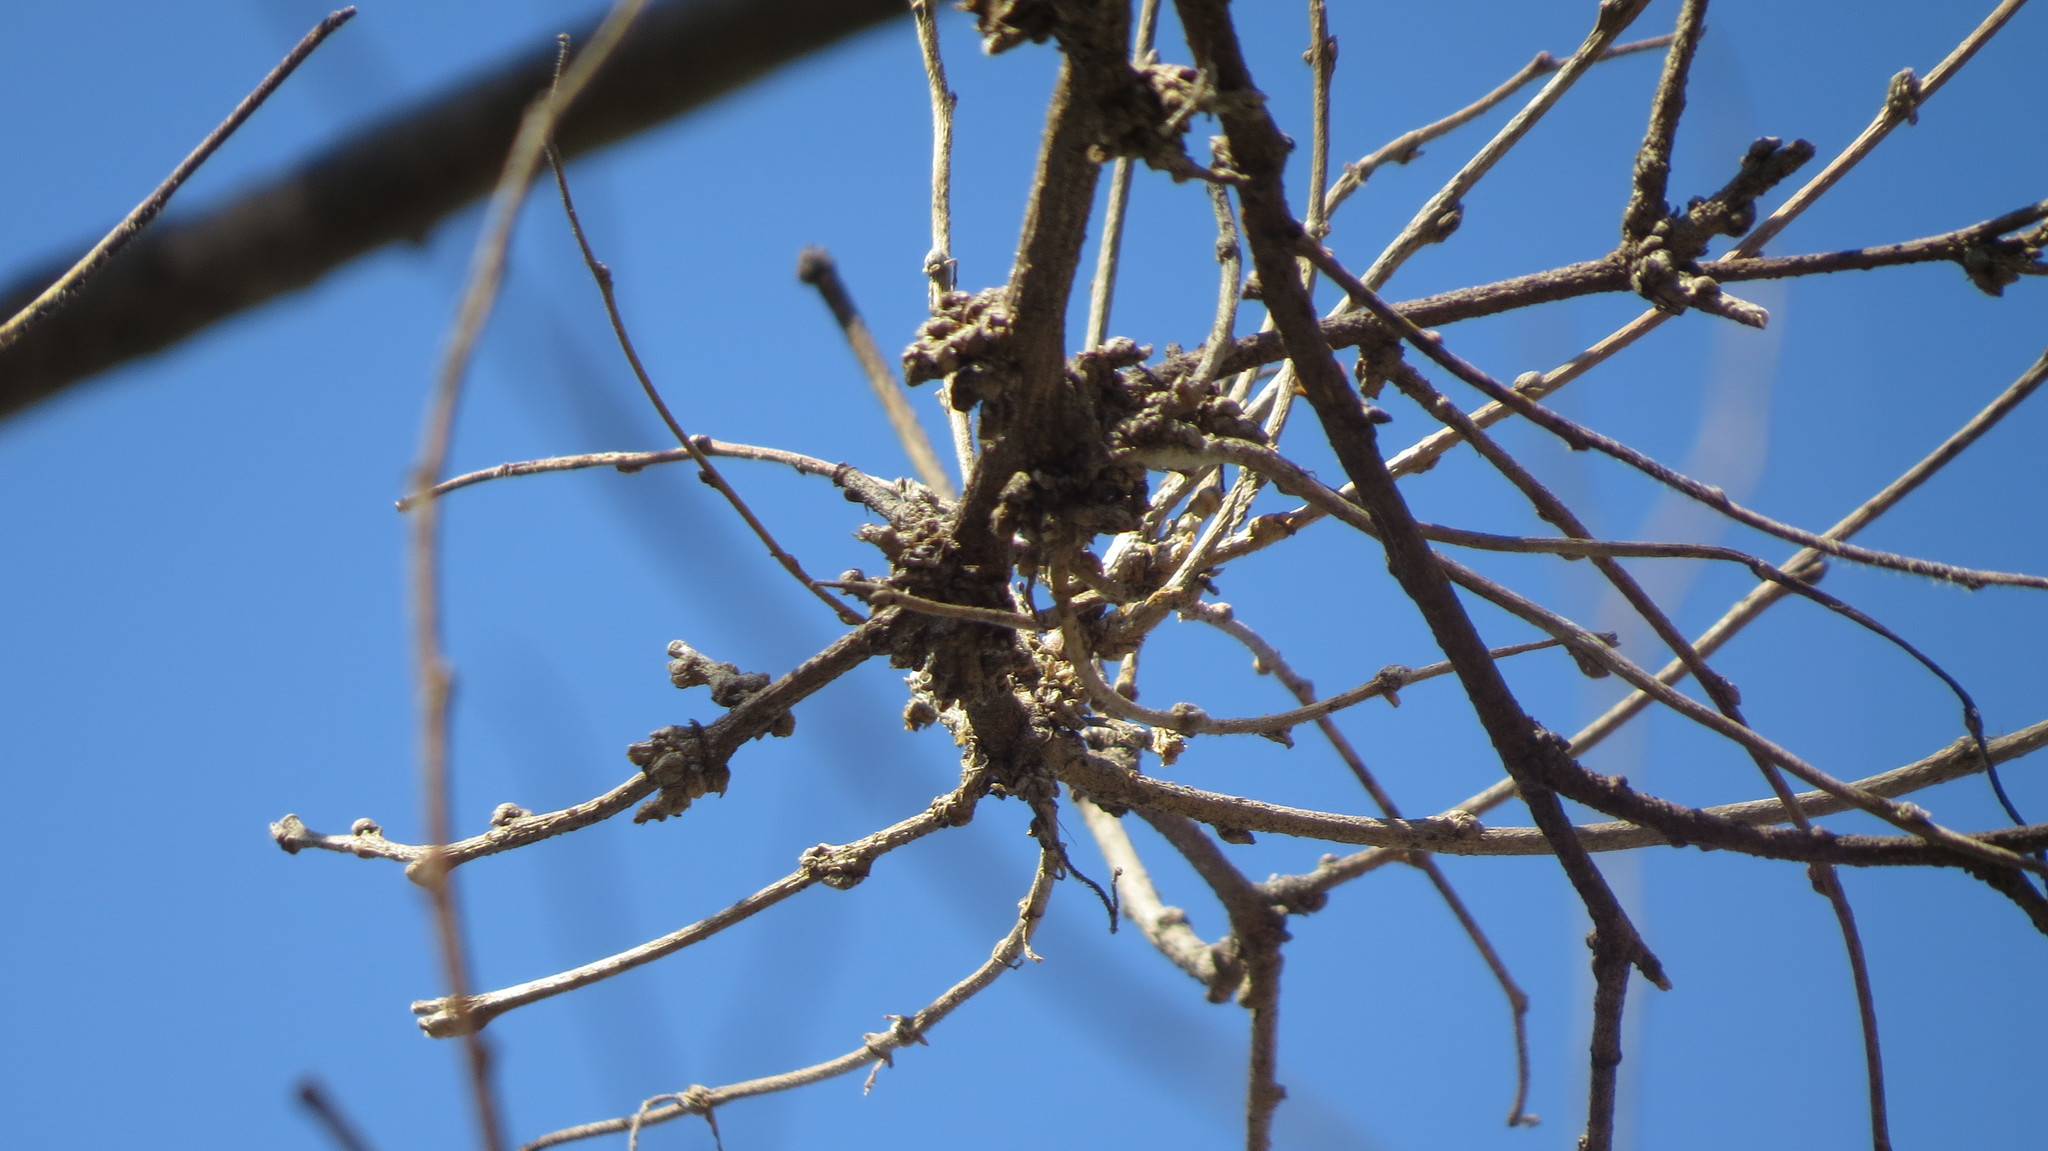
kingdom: Animalia
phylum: Arthropoda
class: Arachnida
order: Trombidiformes
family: Eriophyidae
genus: Aceria
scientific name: Aceria
